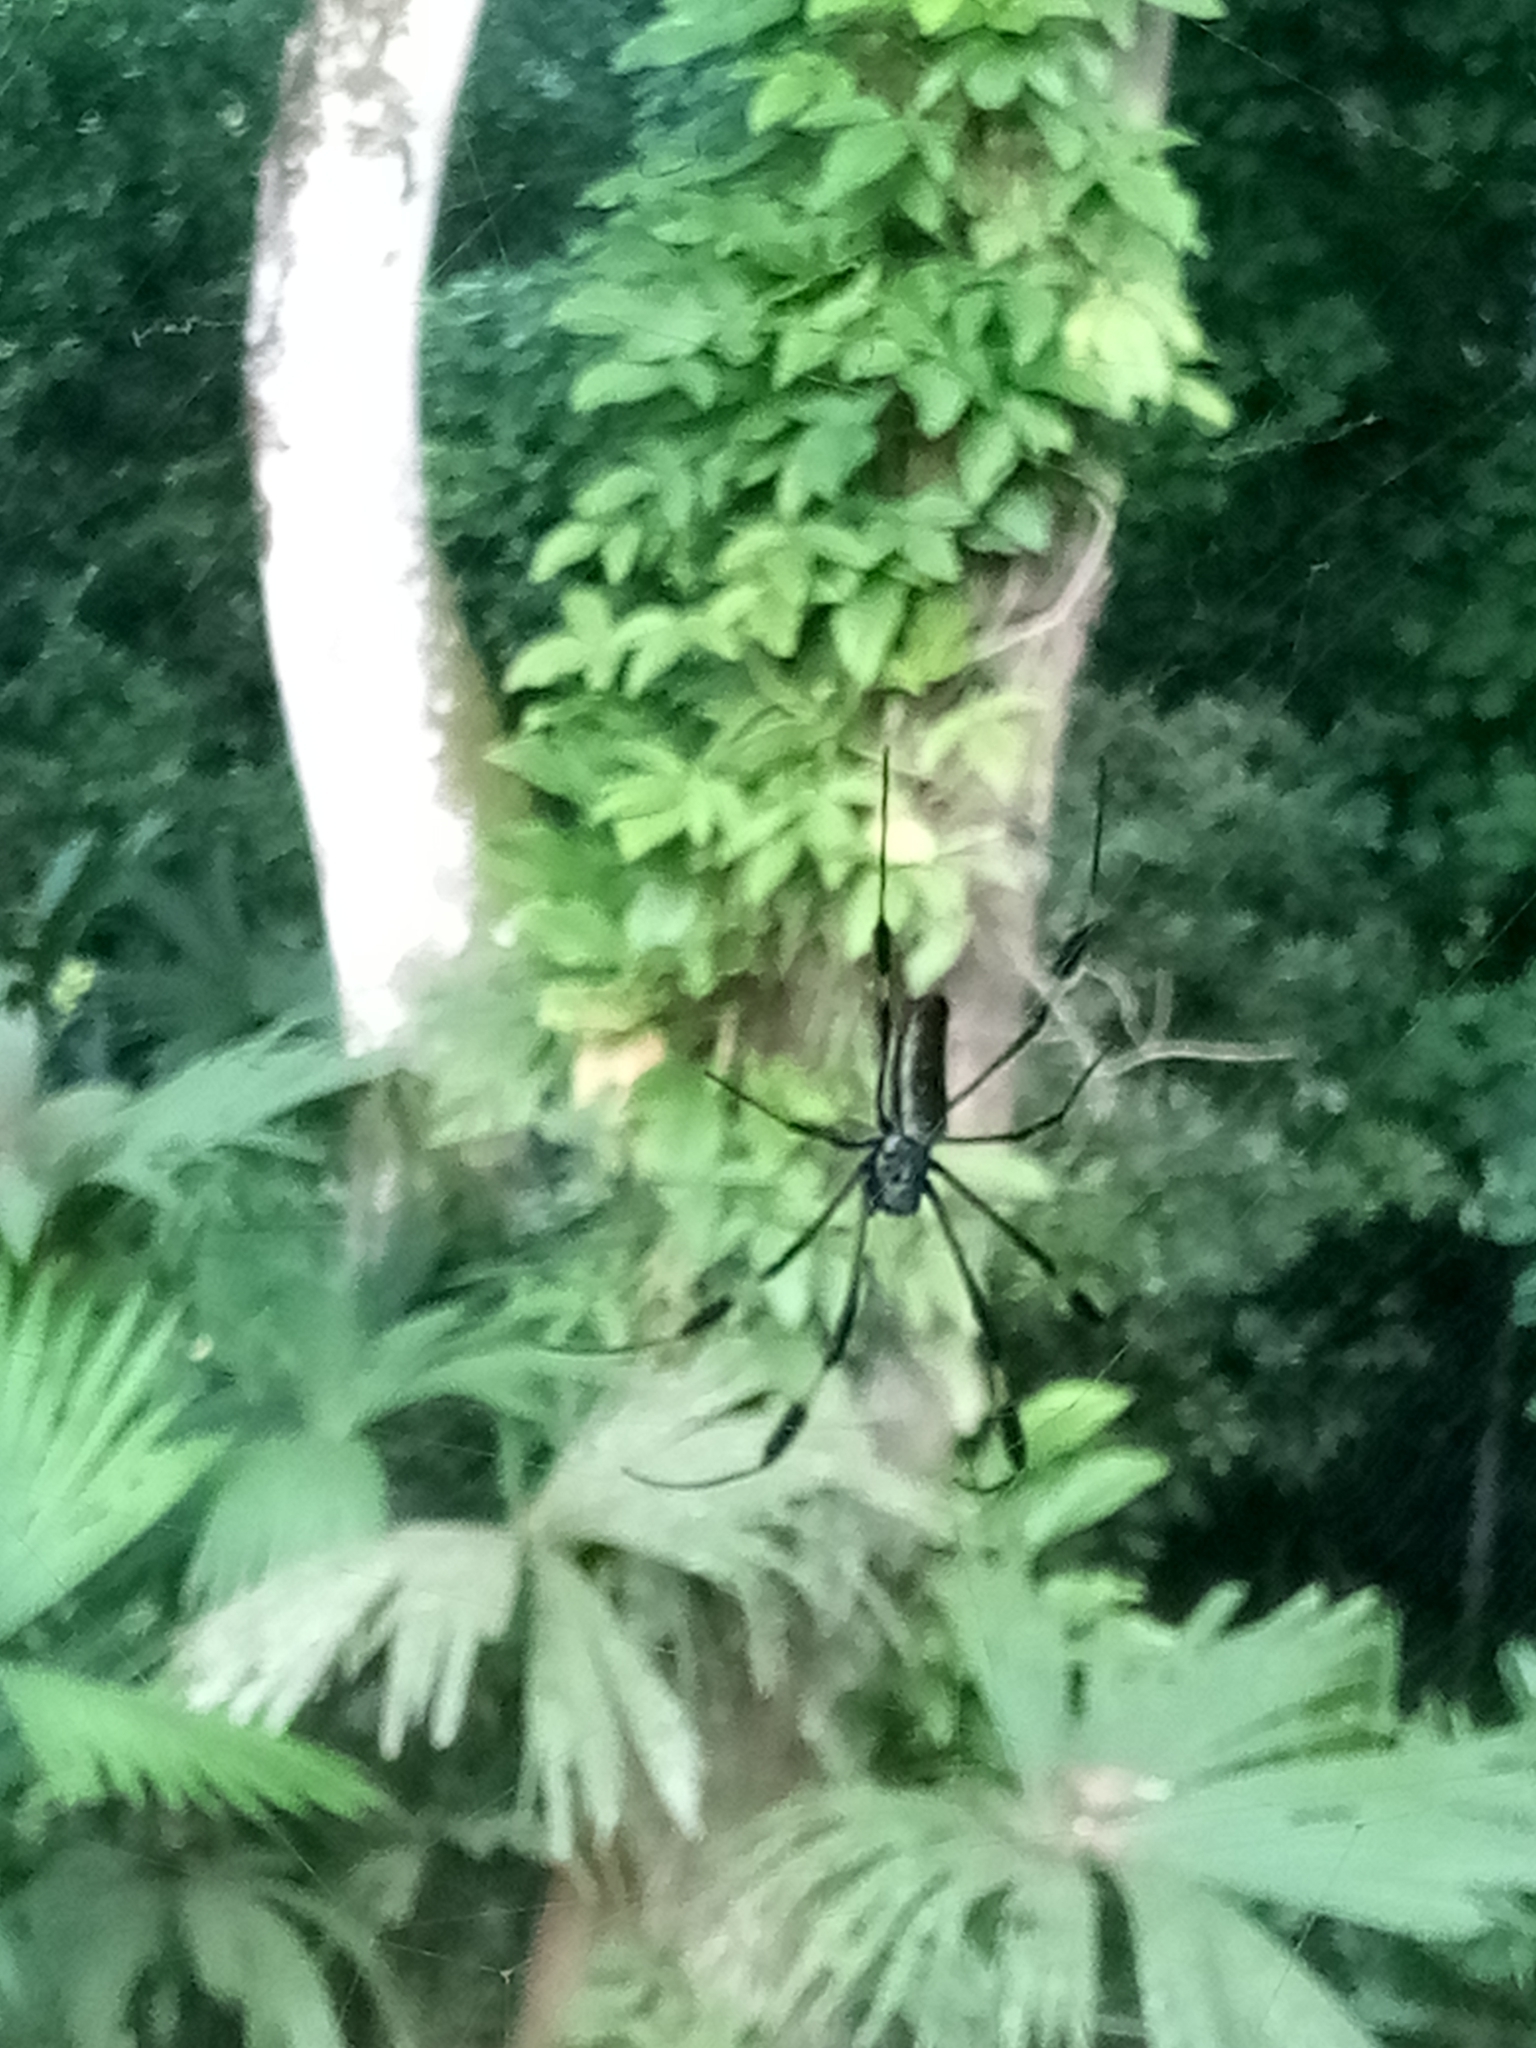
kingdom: Animalia
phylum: Arthropoda
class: Arachnida
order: Araneae
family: Araneidae
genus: Trichonephila
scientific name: Trichonephila clavipes
